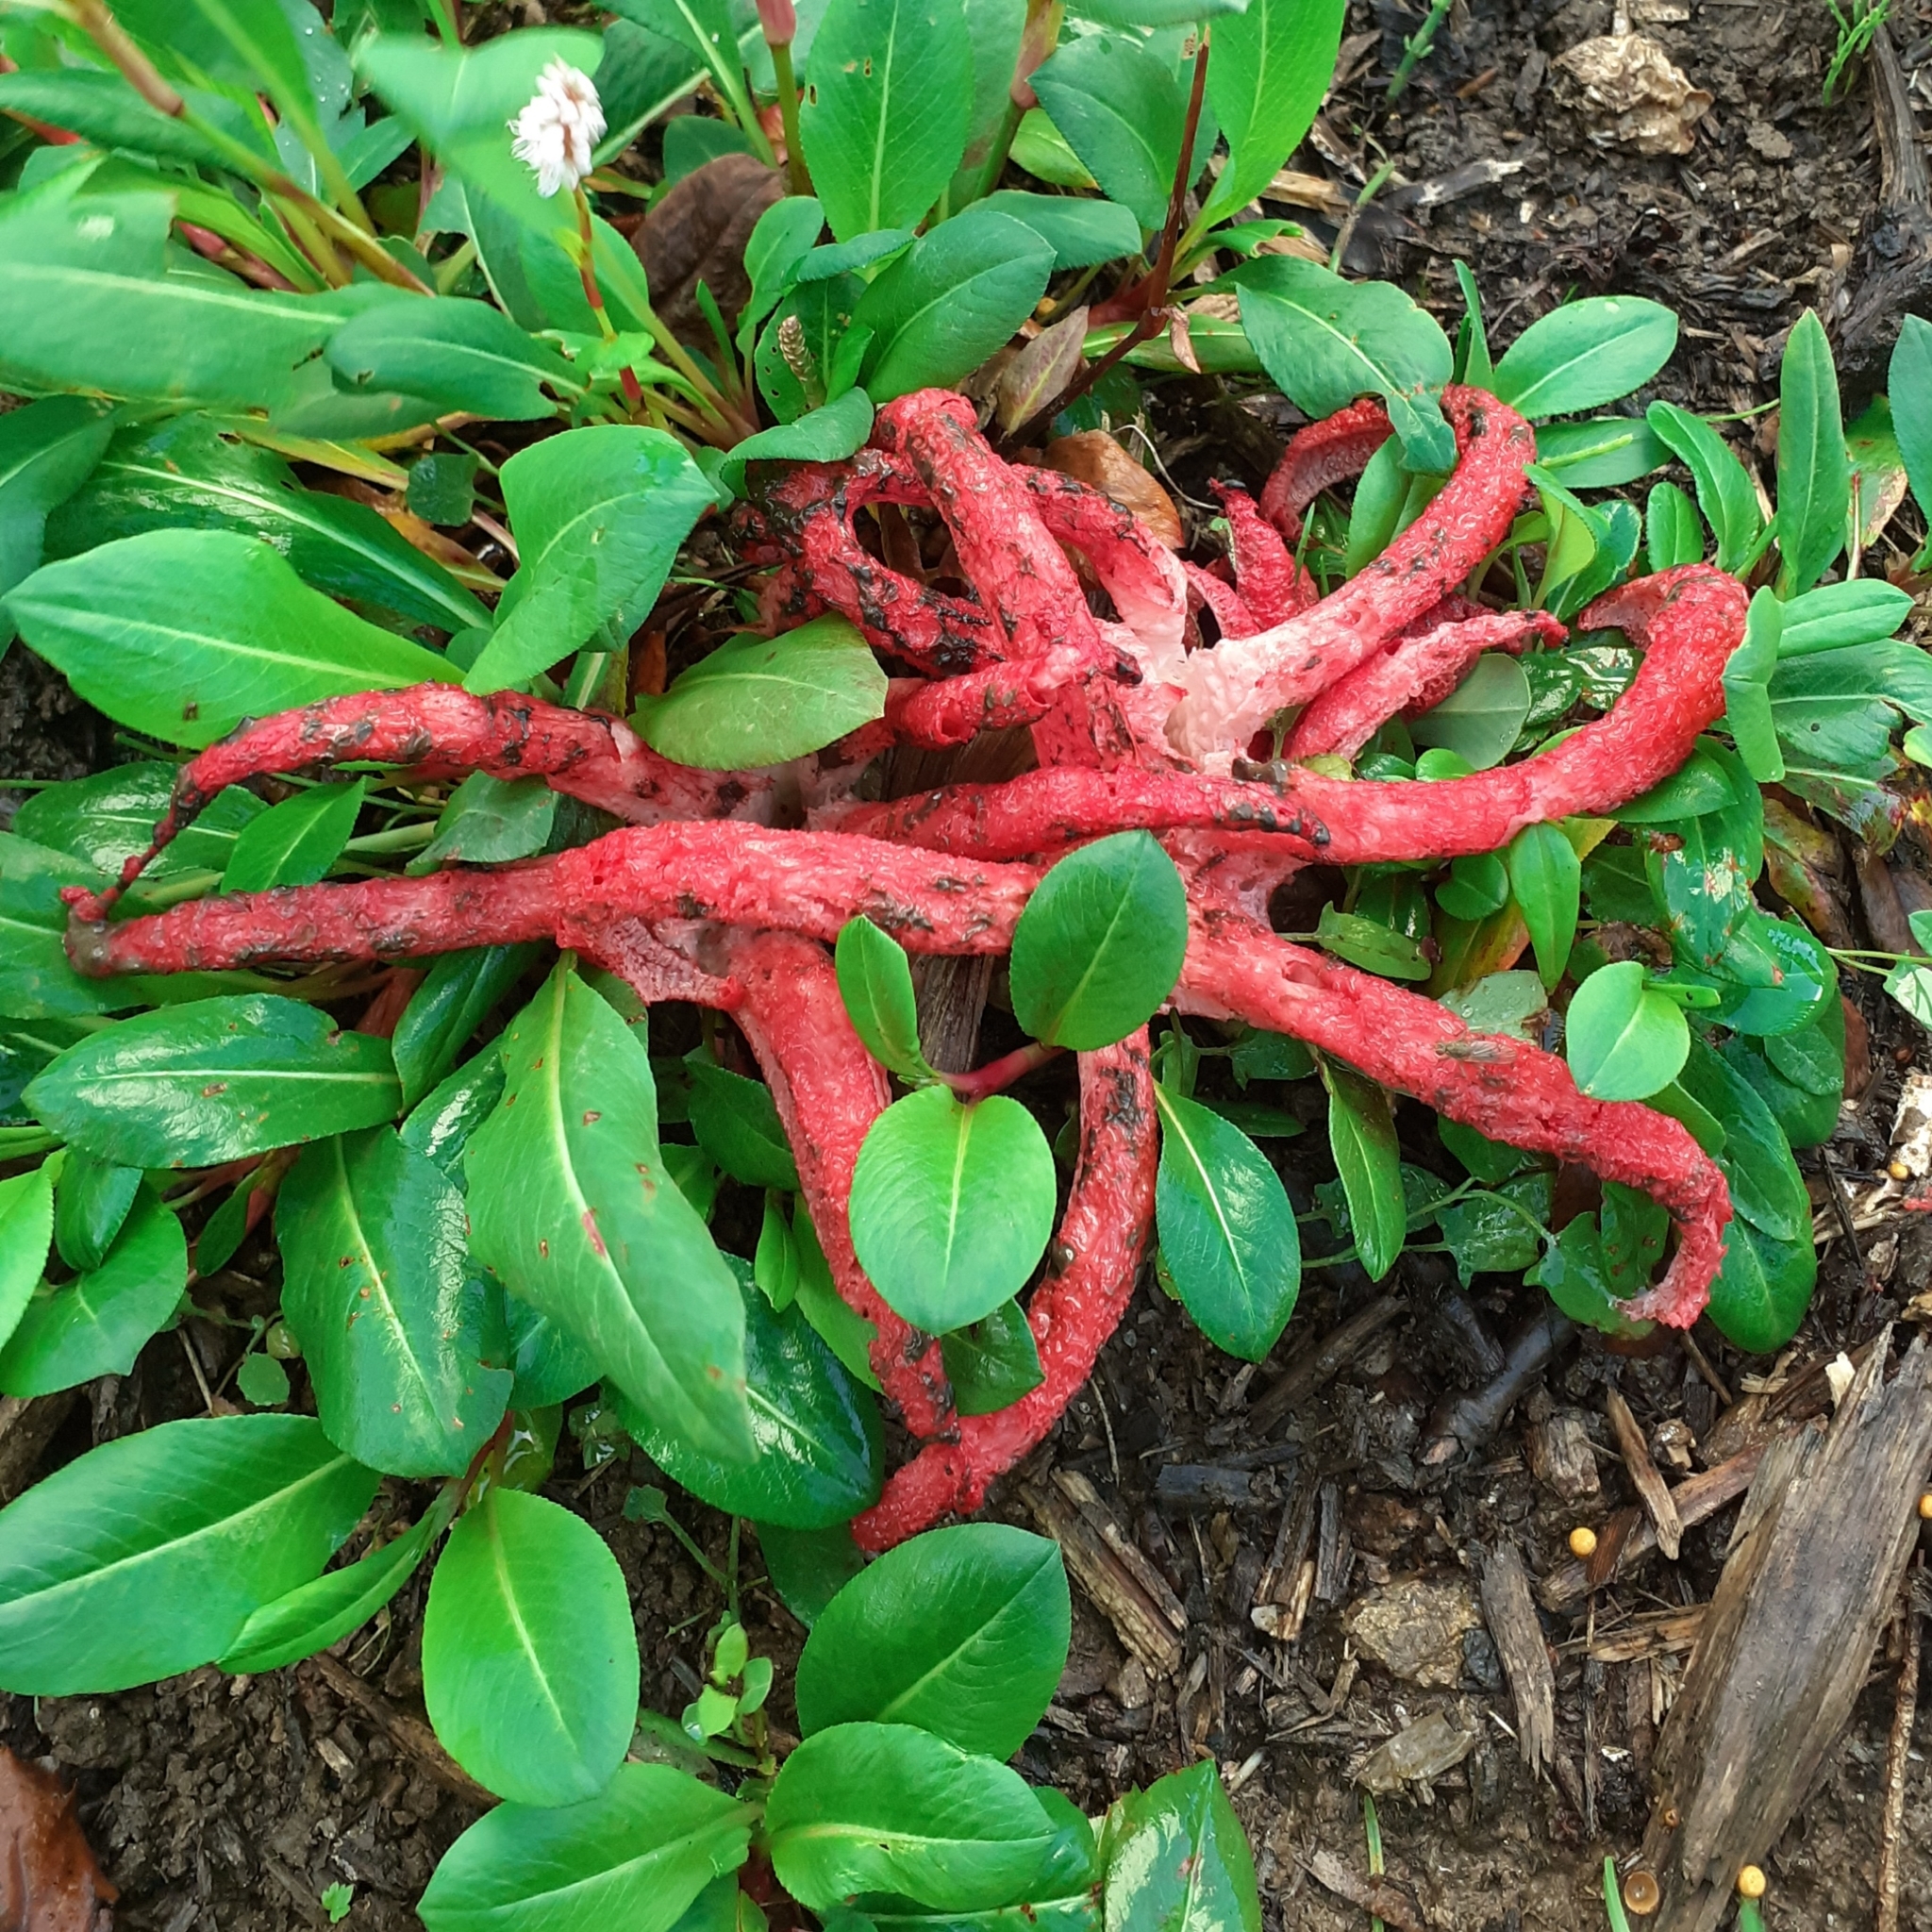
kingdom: Fungi
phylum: Basidiomycota
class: Agaricomycetes
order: Phallales
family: Phallaceae
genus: Clathrus
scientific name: Clathrus archeri
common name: Devil's fingers
